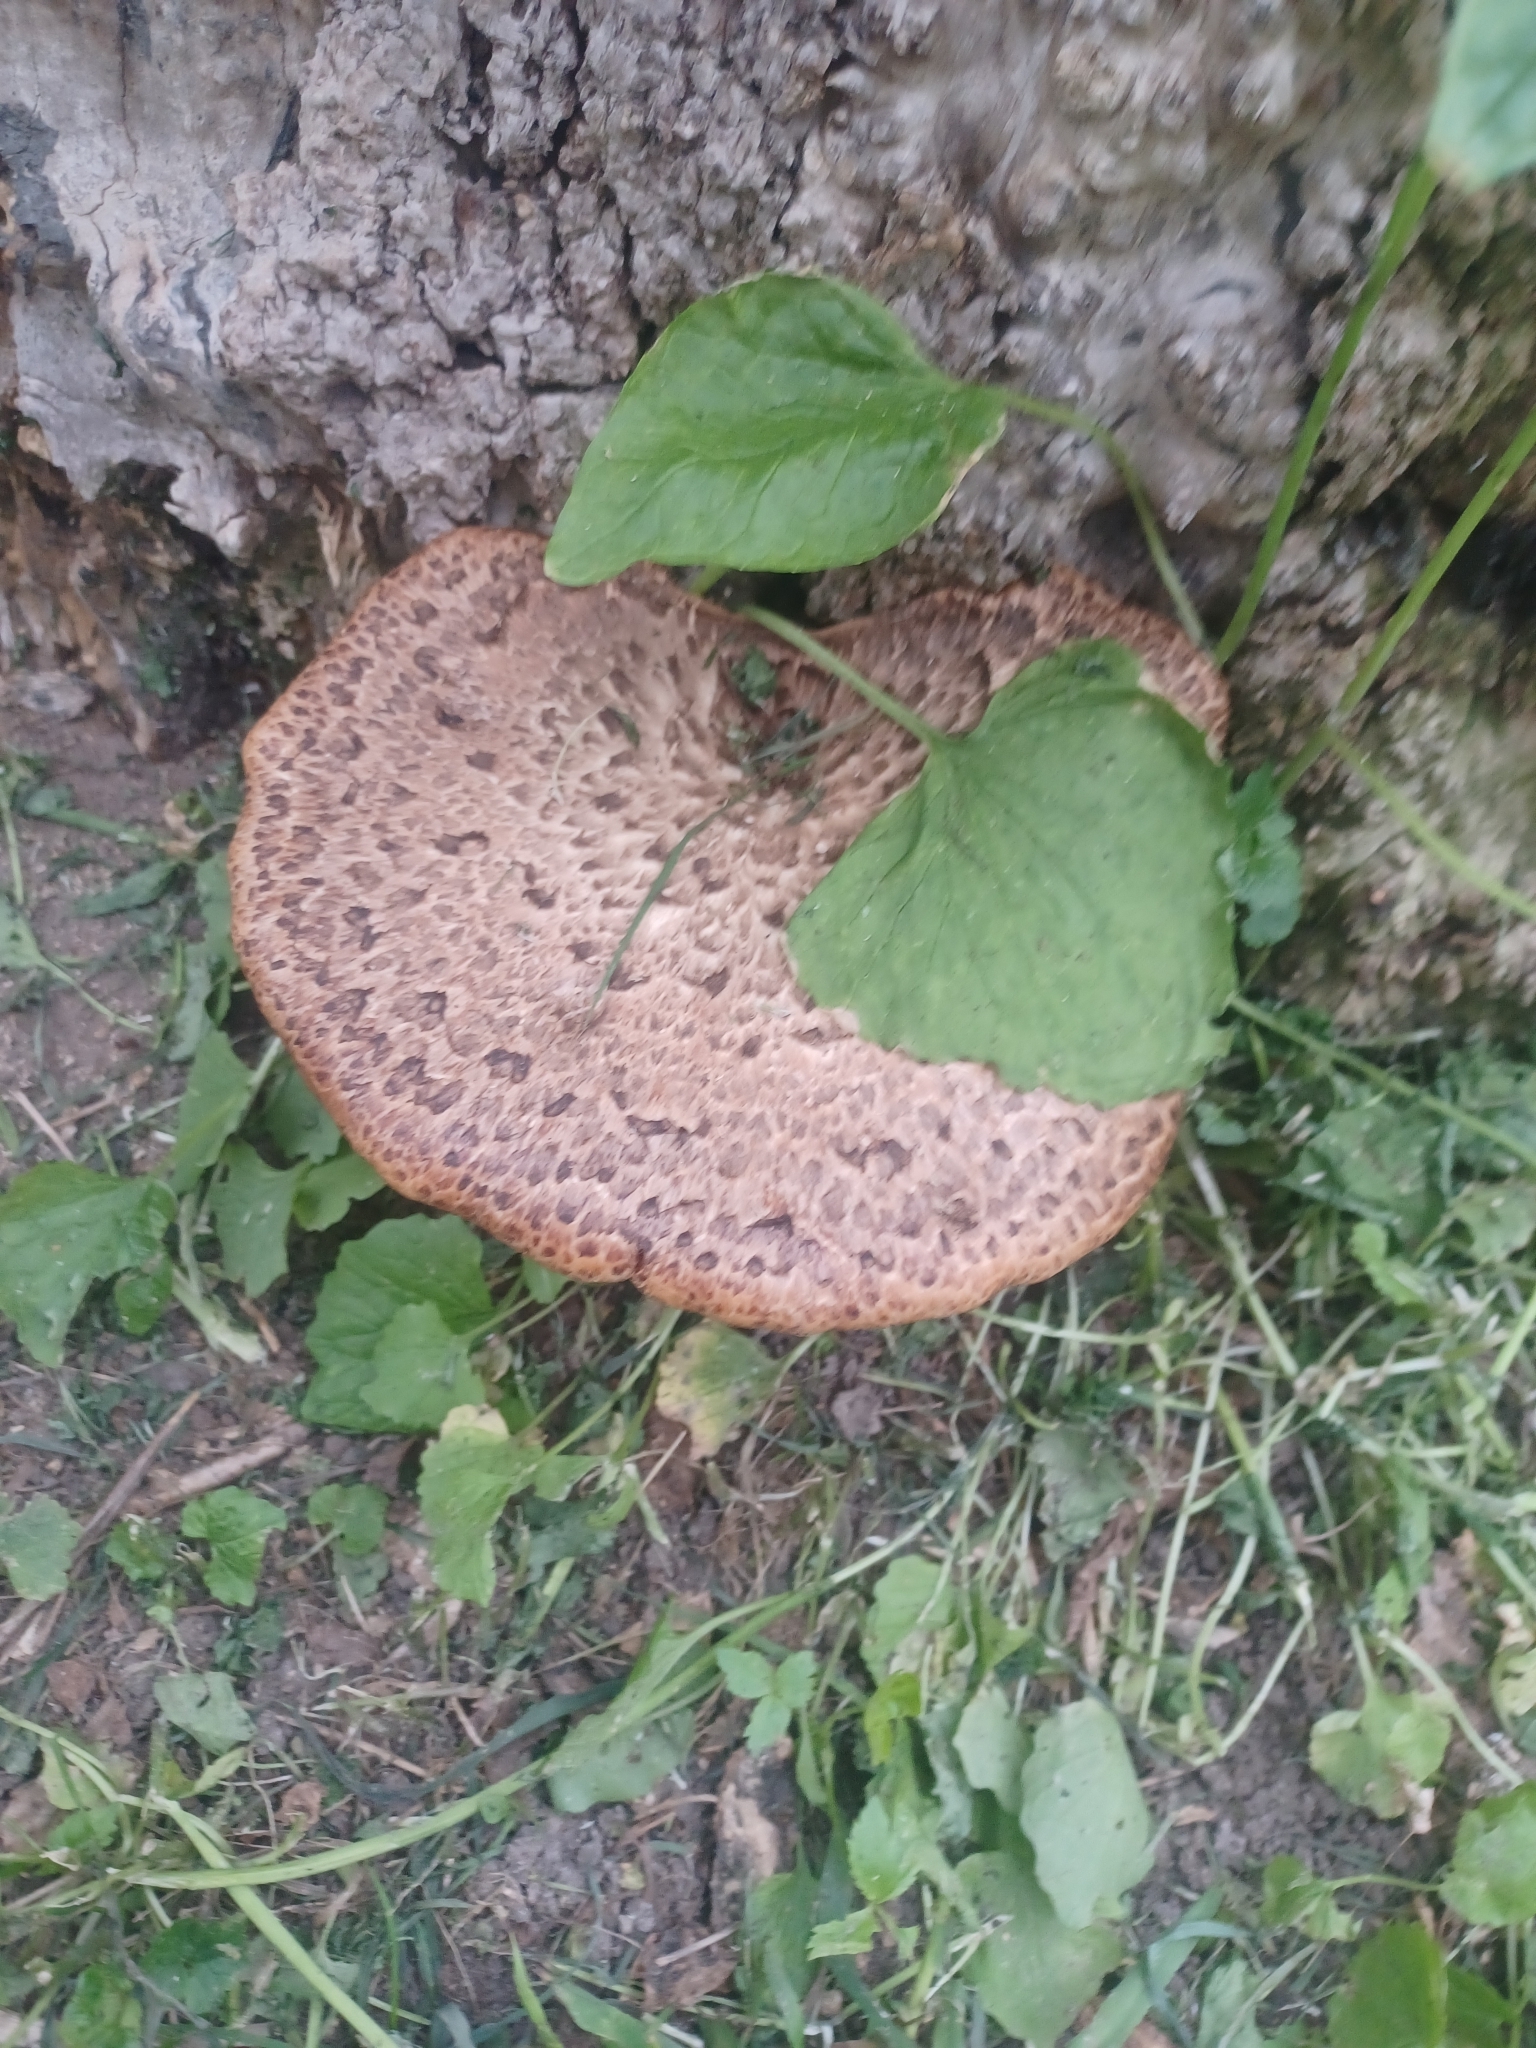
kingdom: Fungi
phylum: Basidiomycota
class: Agaricomycetes
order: Polyporales
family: Polyporaceae
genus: Cerioporus
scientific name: Cerioporus squamosus
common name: Dryad's saddle
